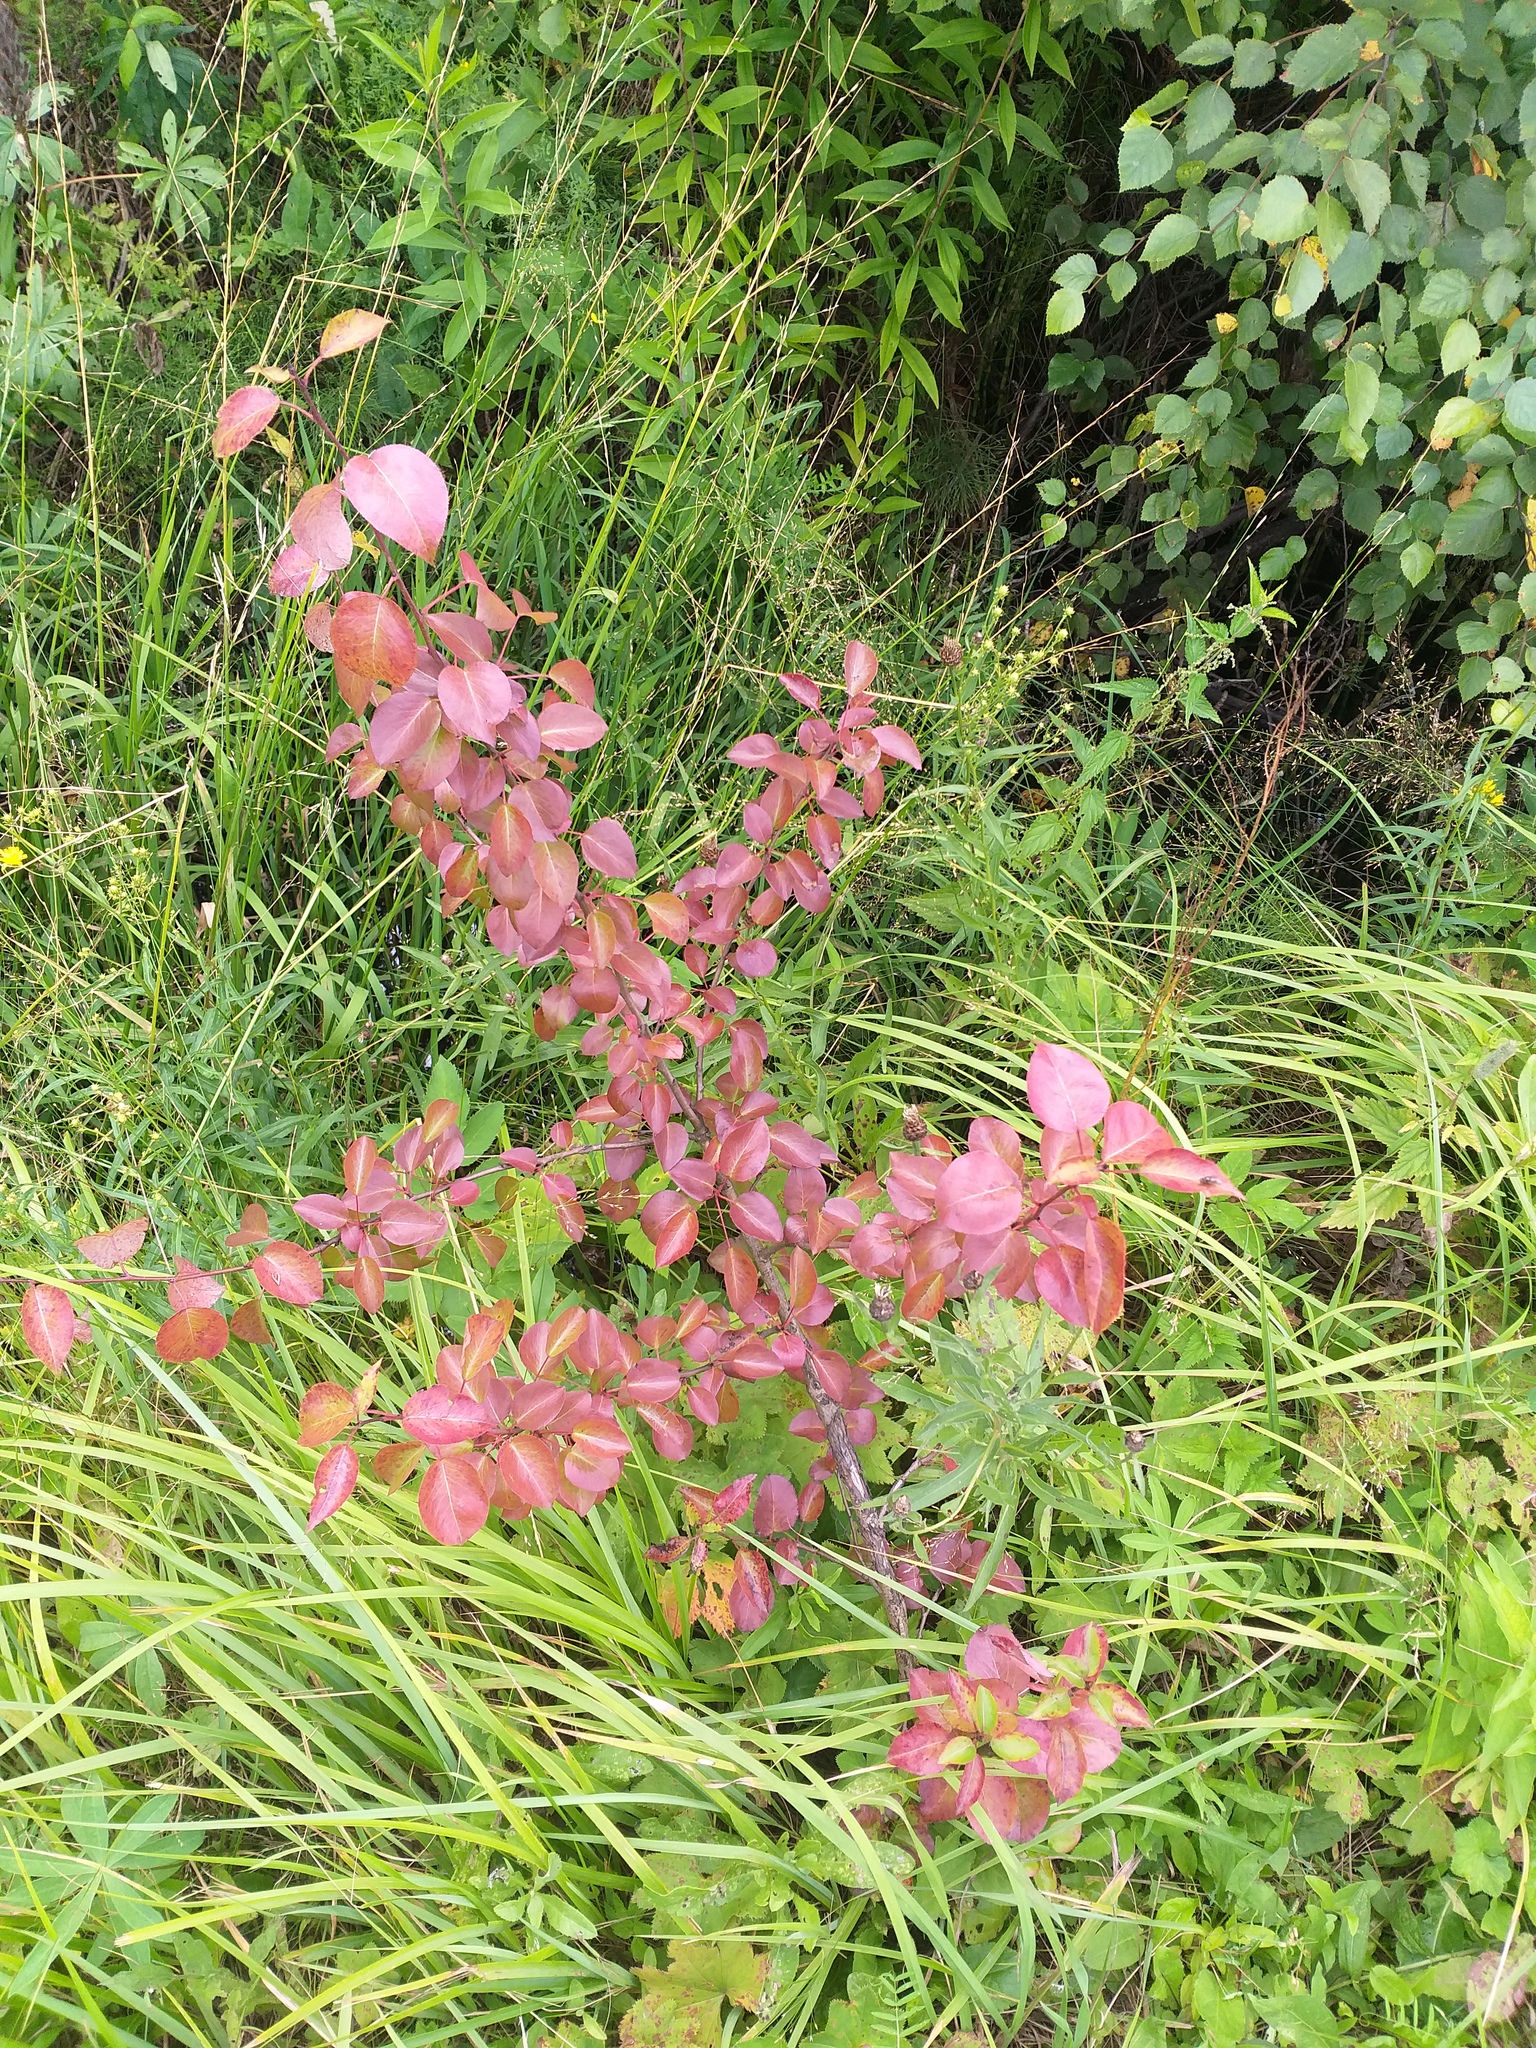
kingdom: Plantae
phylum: Tracheophyta
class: Magnoliopsida
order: Rosales
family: Rosaceae
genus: Pyrus
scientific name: Pyrus communis
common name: Pear
